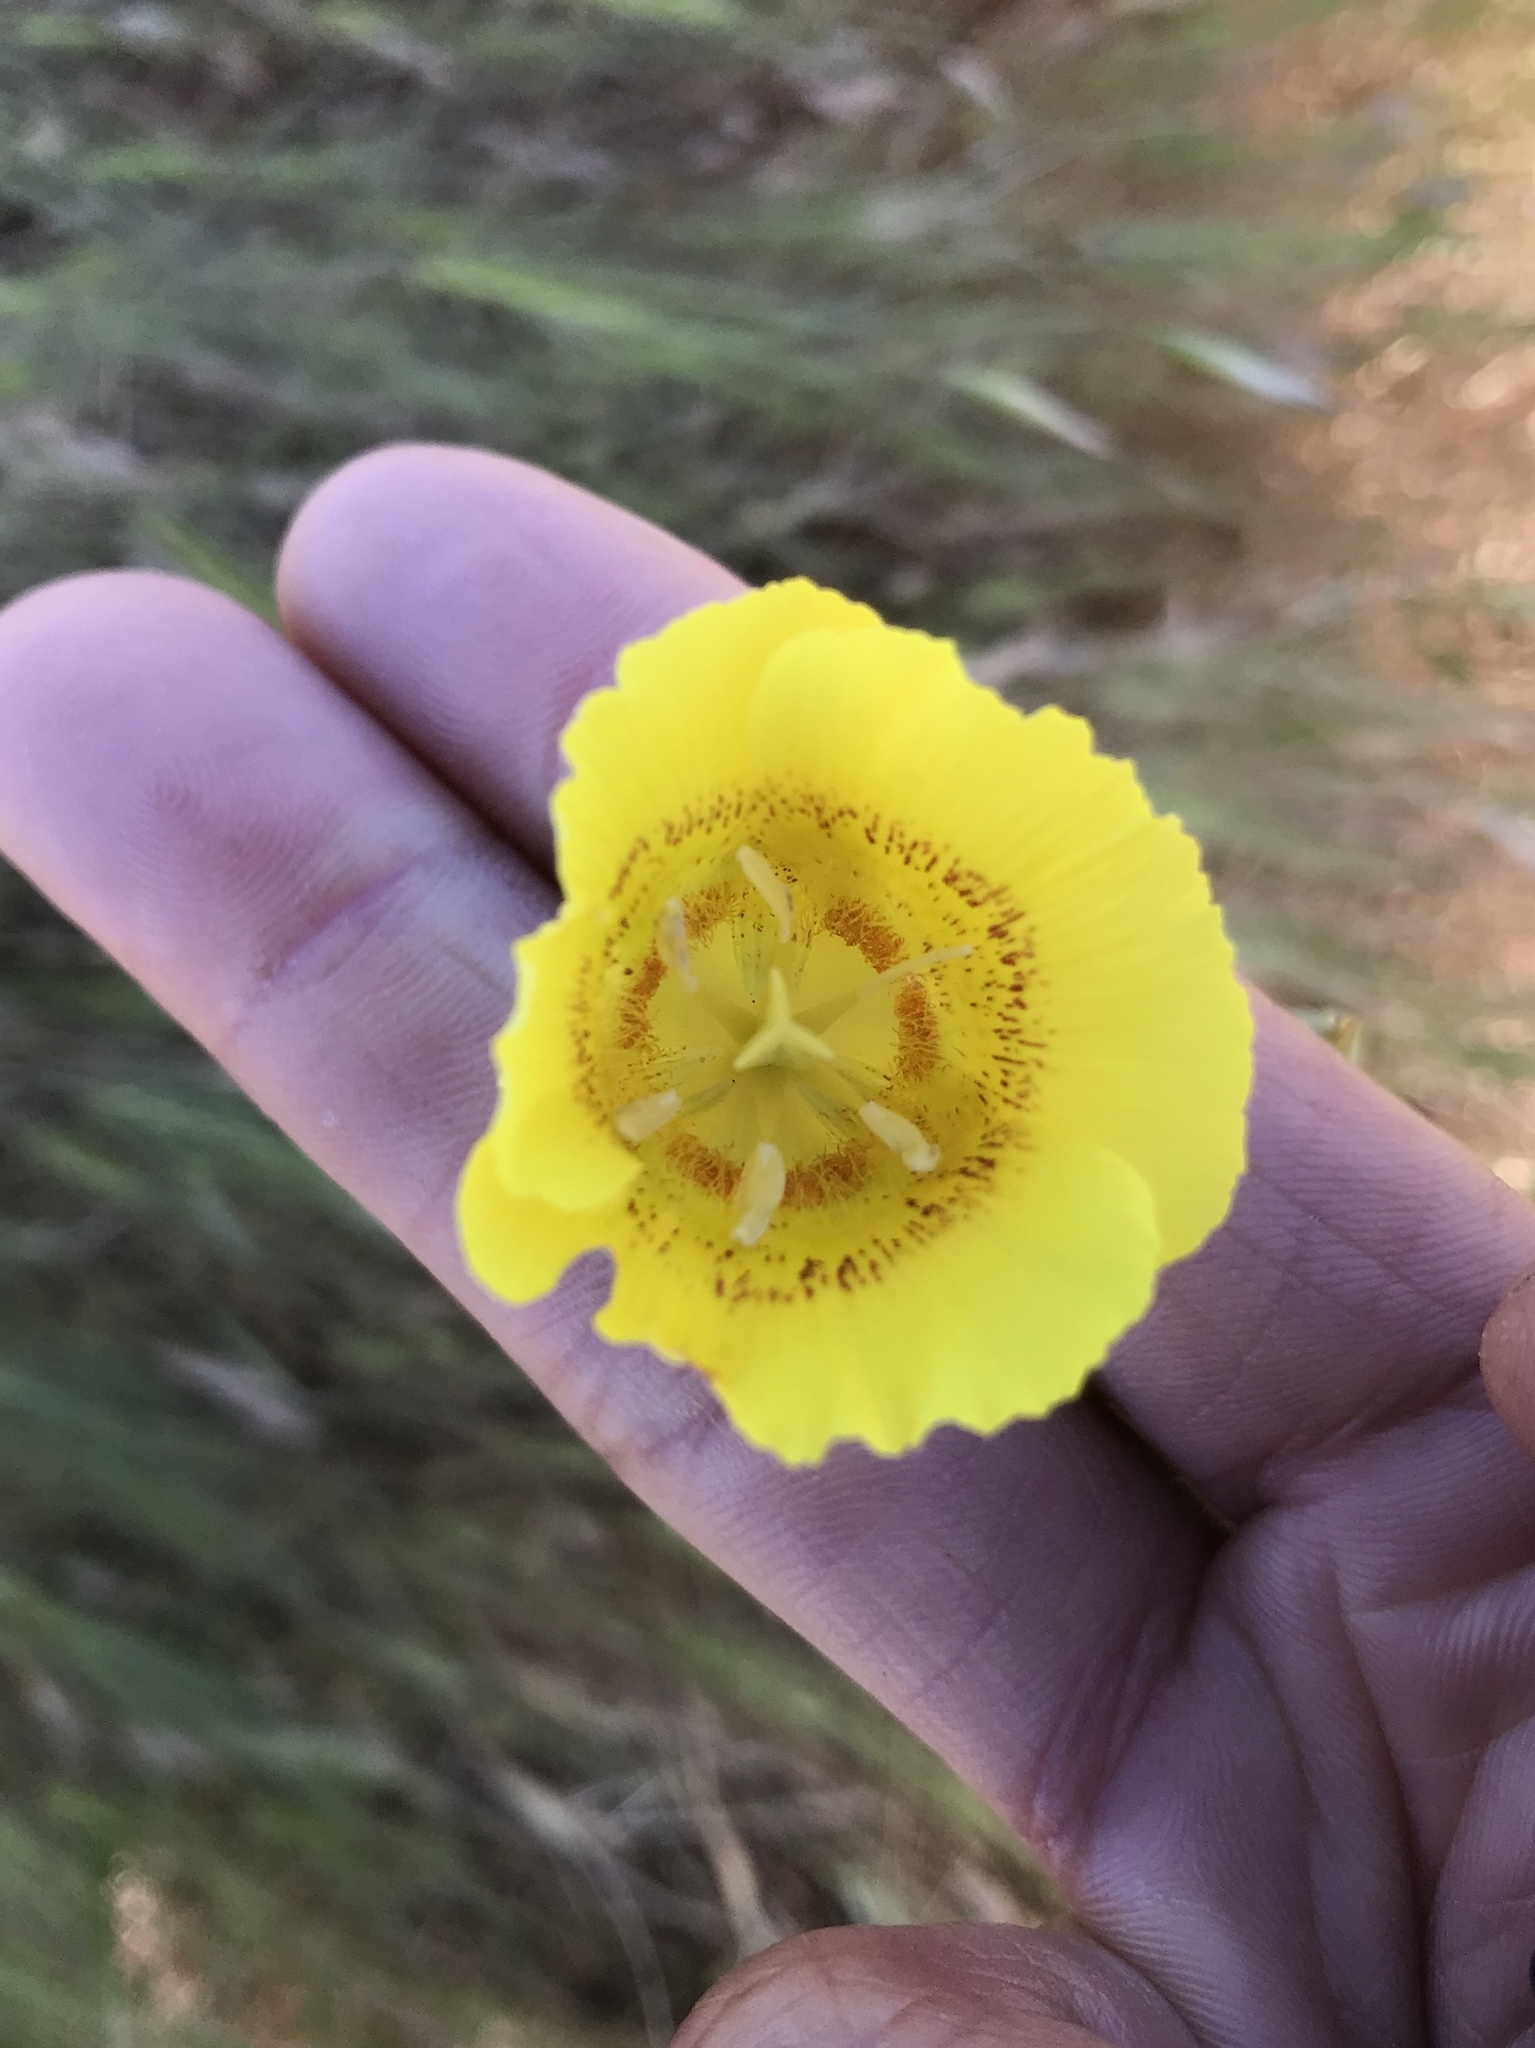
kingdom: Plantae
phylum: Tracheophyta
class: Liliopsida
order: Liliales
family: Liliaceae
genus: Calochortus
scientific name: Calochortus luteus
